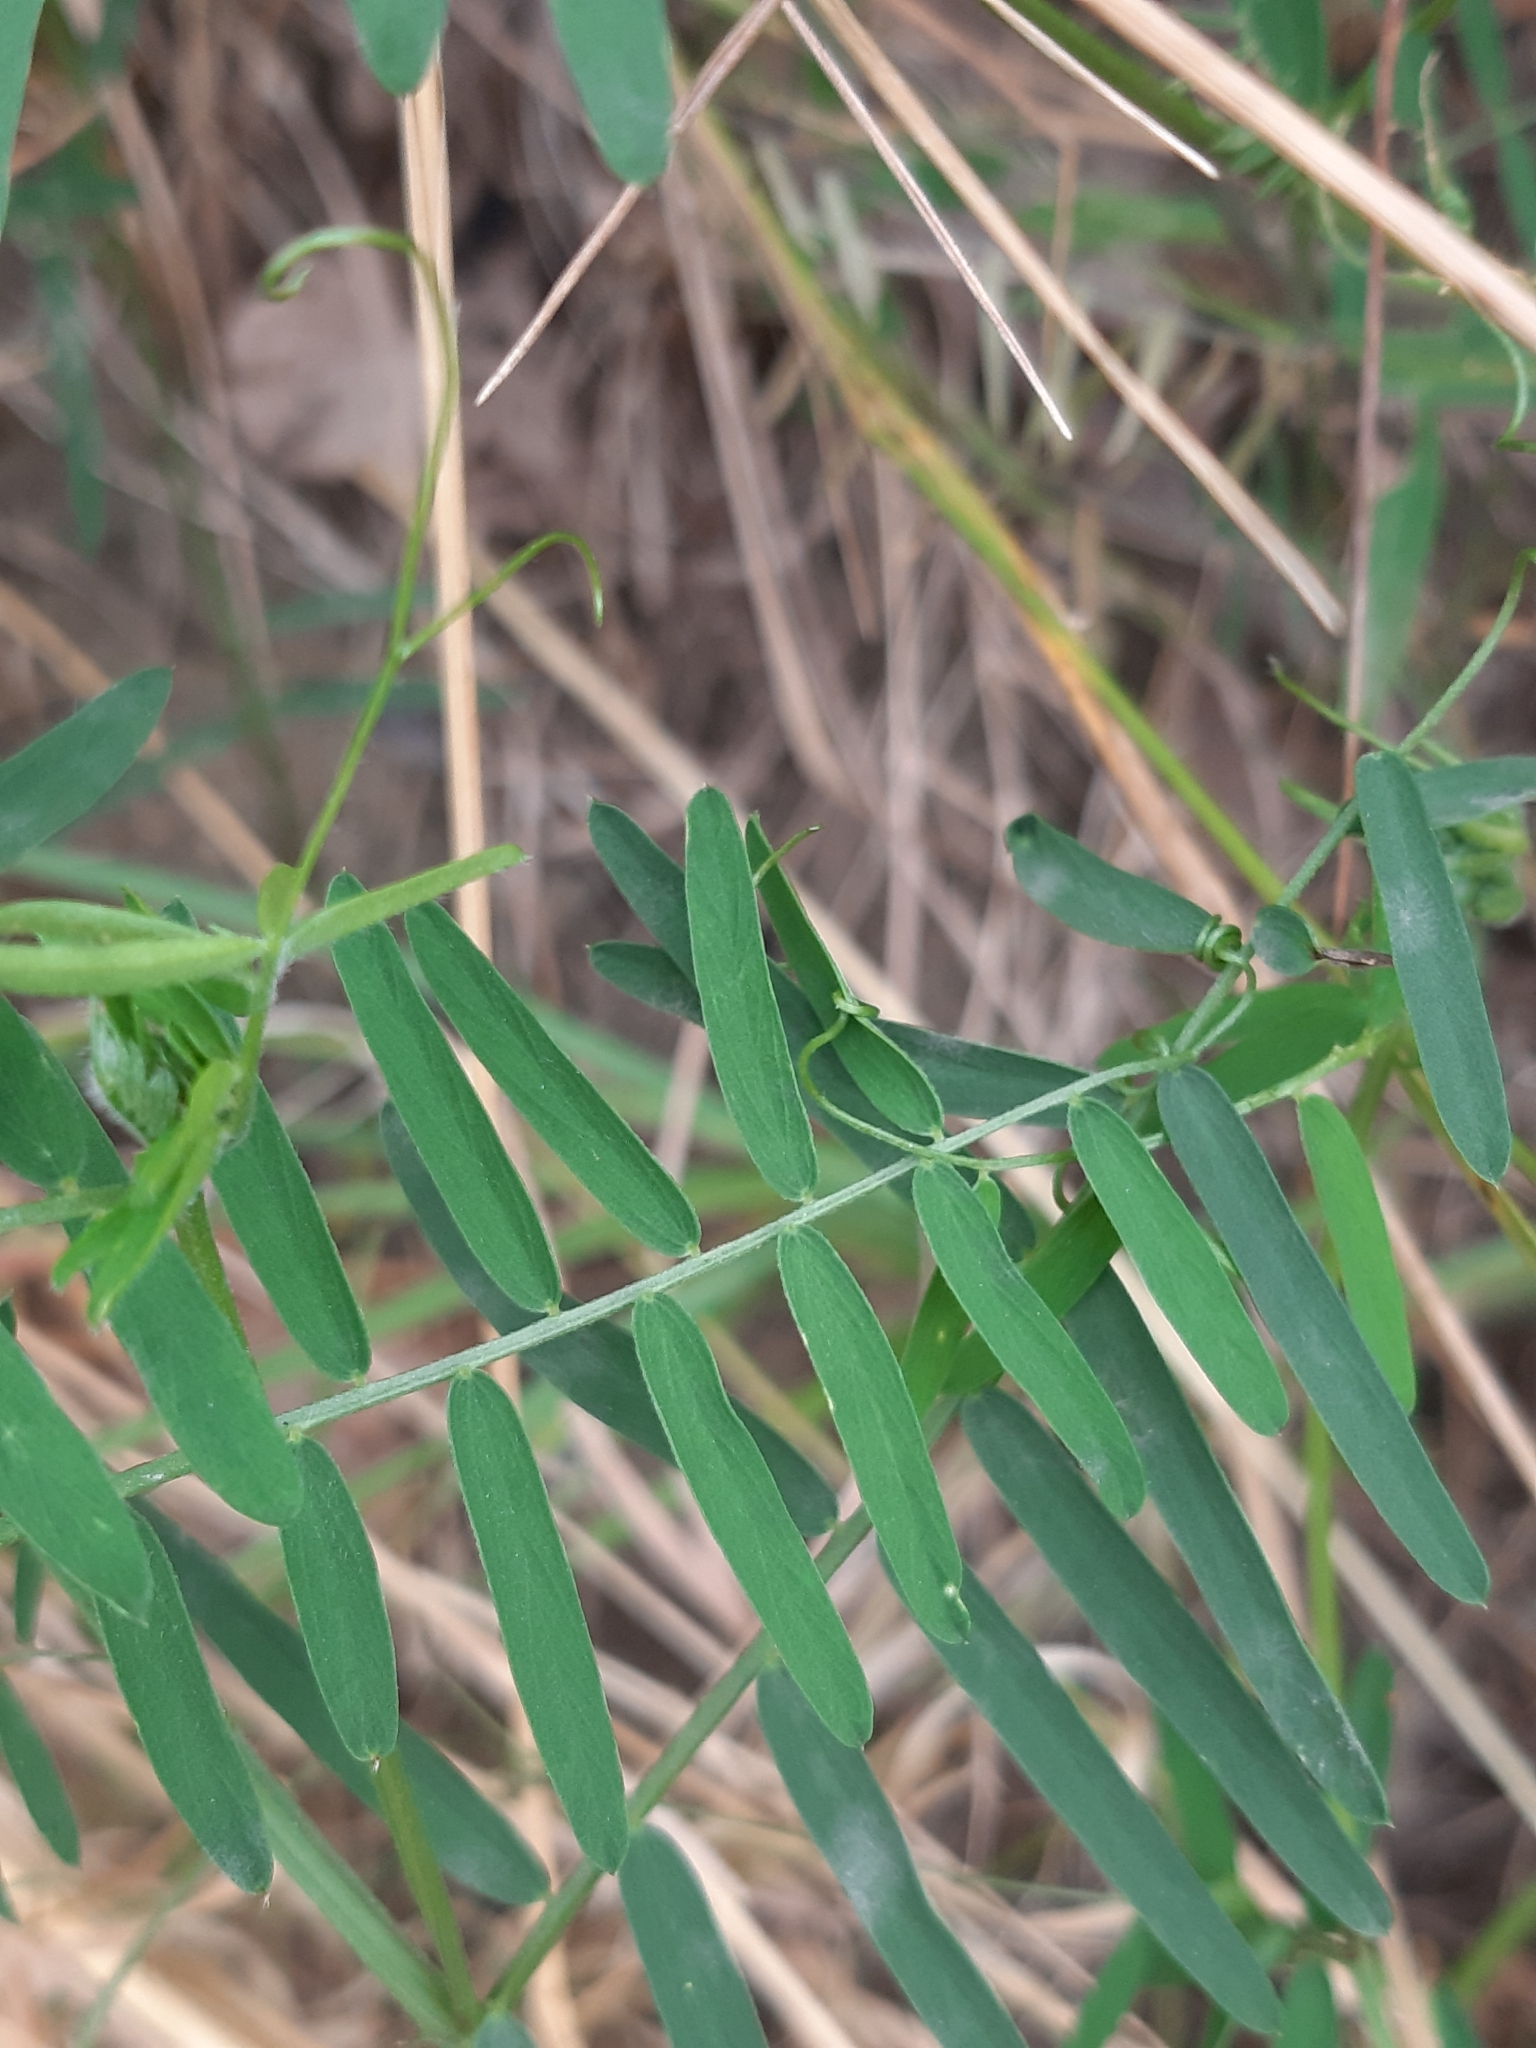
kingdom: Plantae
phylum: Tracheophyta
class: Magnoliopsida
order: Fabales
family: Fabaceae
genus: Vicia
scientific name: Vicia cracca
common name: Bird vetch
